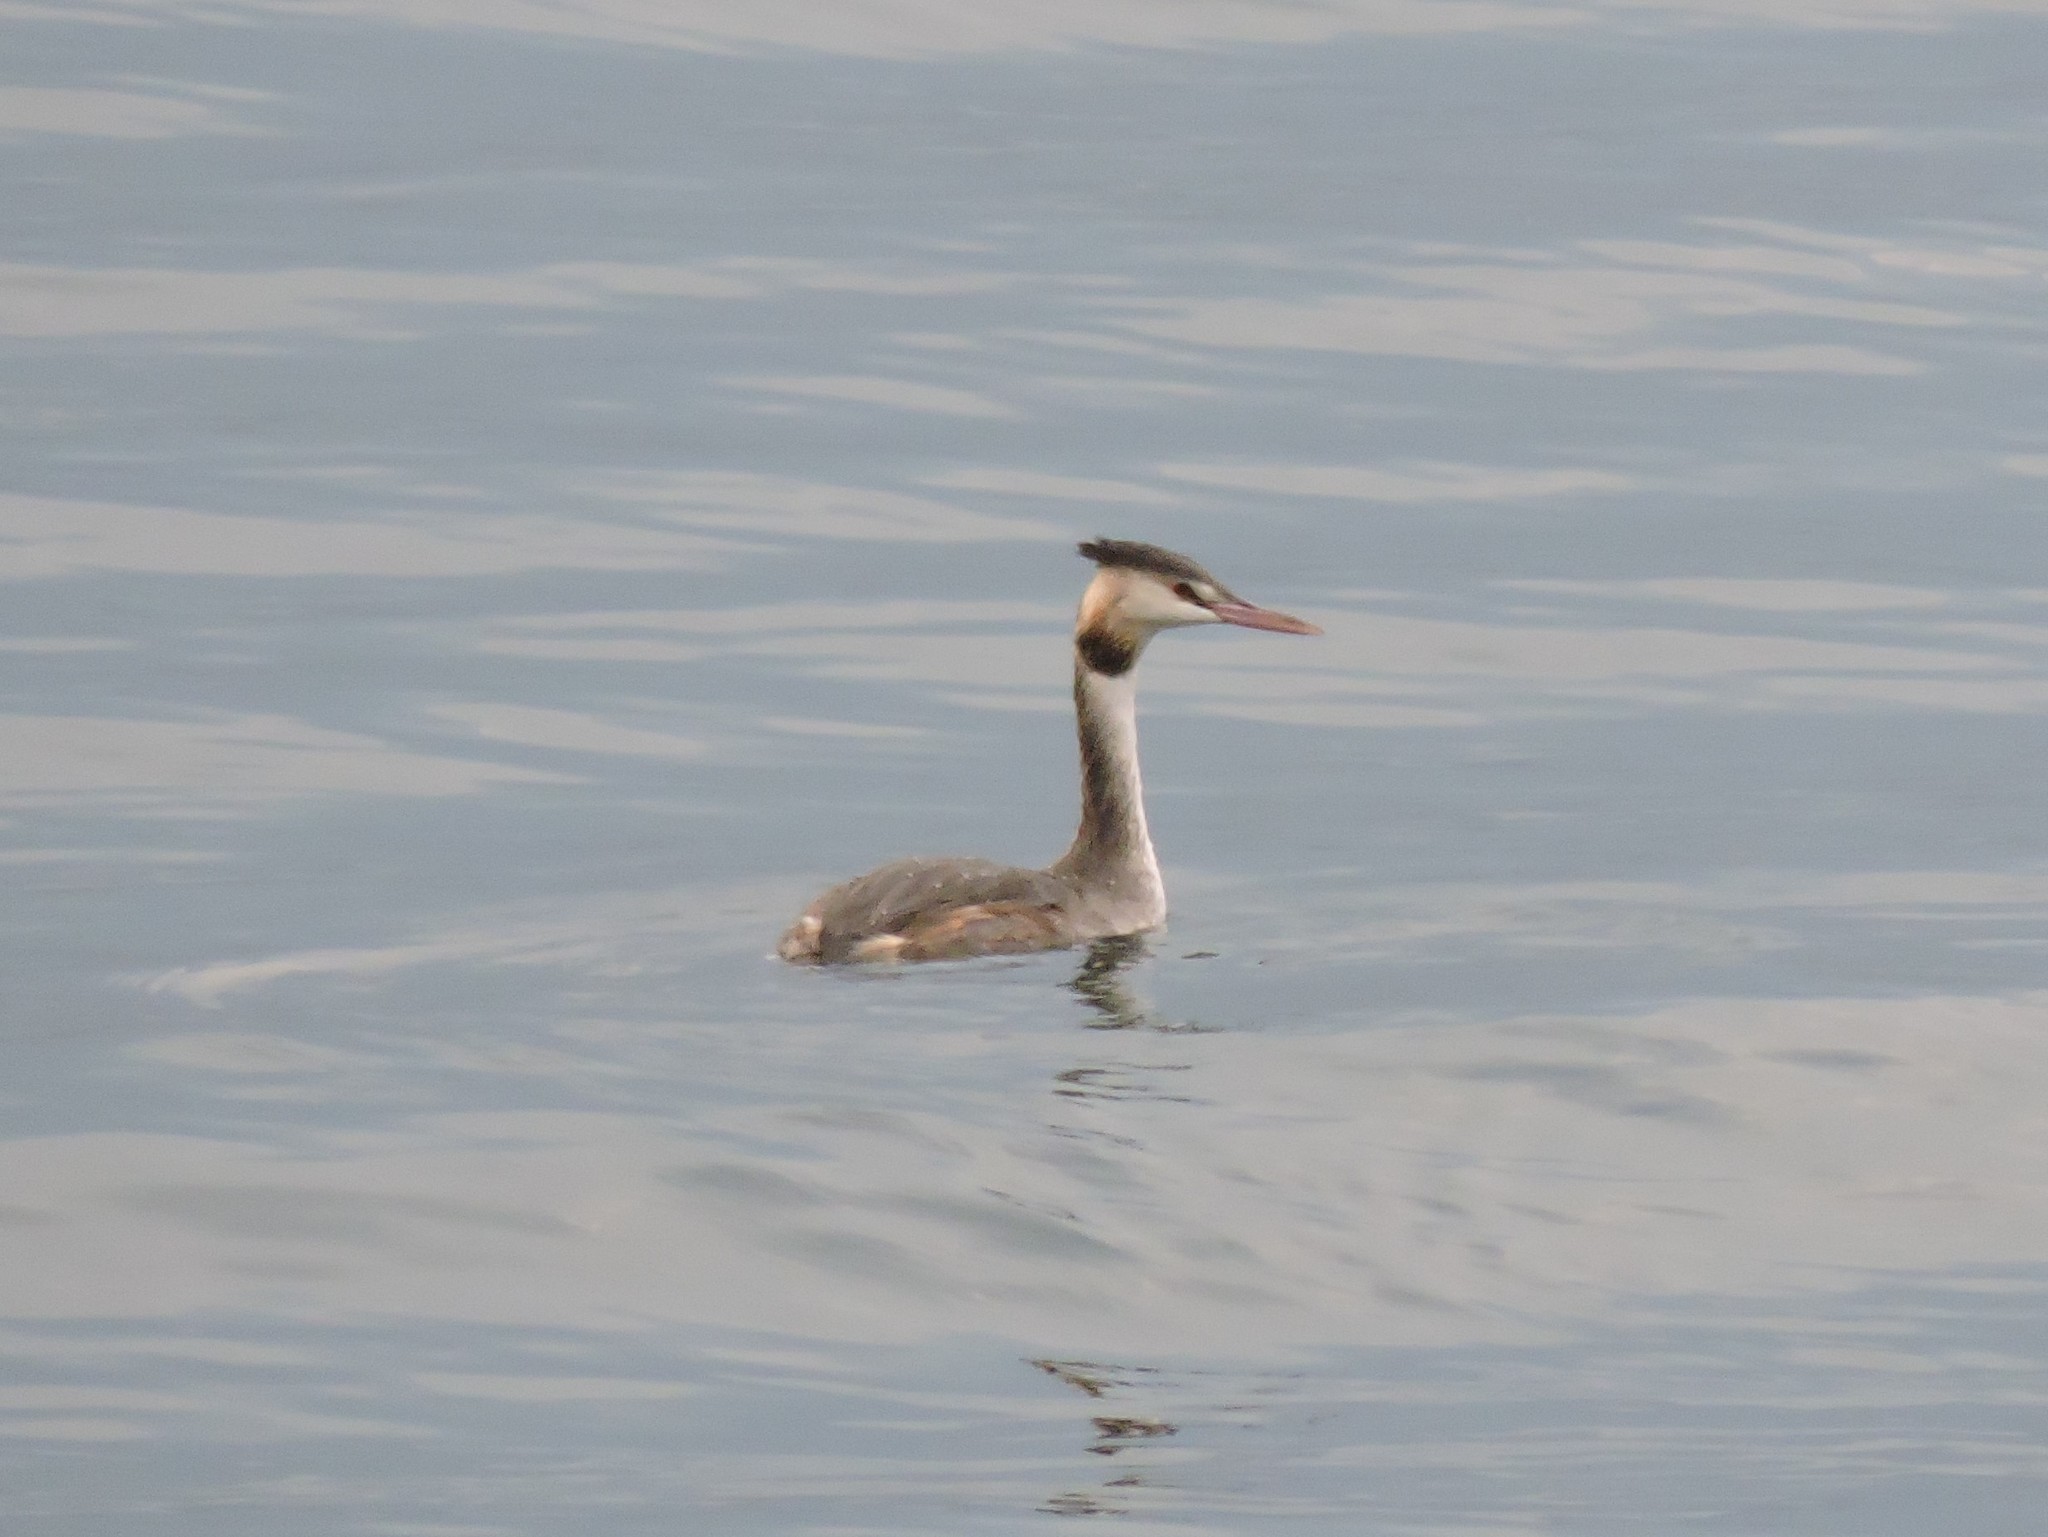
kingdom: Animalia
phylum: Chordata
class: Aves
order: Podicipediformes
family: Podicipedidae
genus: Podiceps
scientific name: Podiceps cristatus
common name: Great crested grebe
